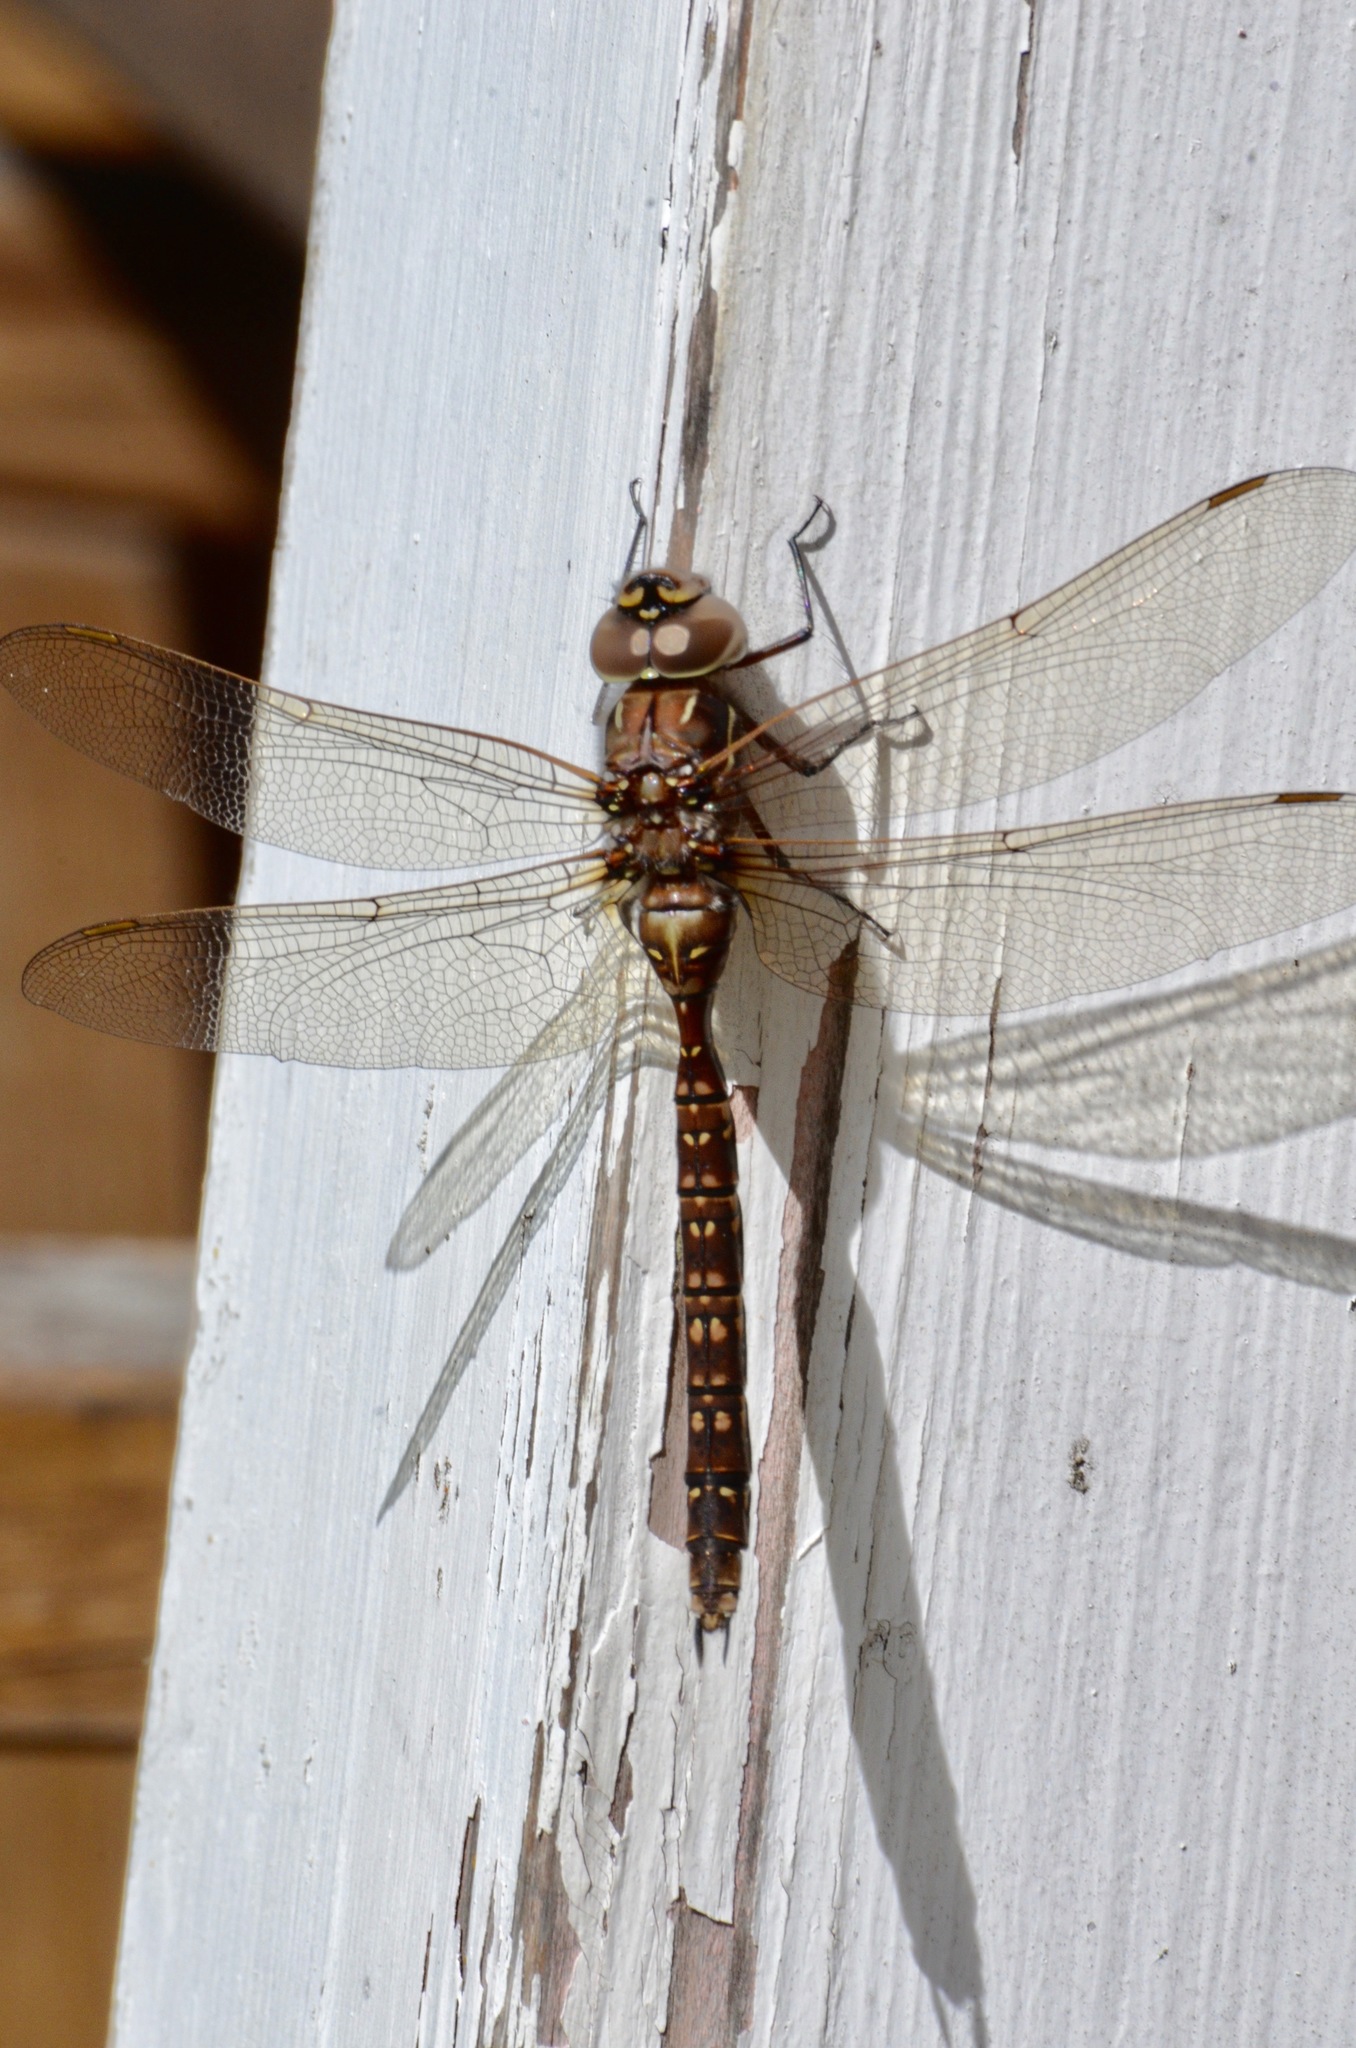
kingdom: Animalia
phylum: Arthropoda
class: Insecta
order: Odonata
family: Aeshnidae
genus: Aeshna
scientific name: Aeshna brevistyla
